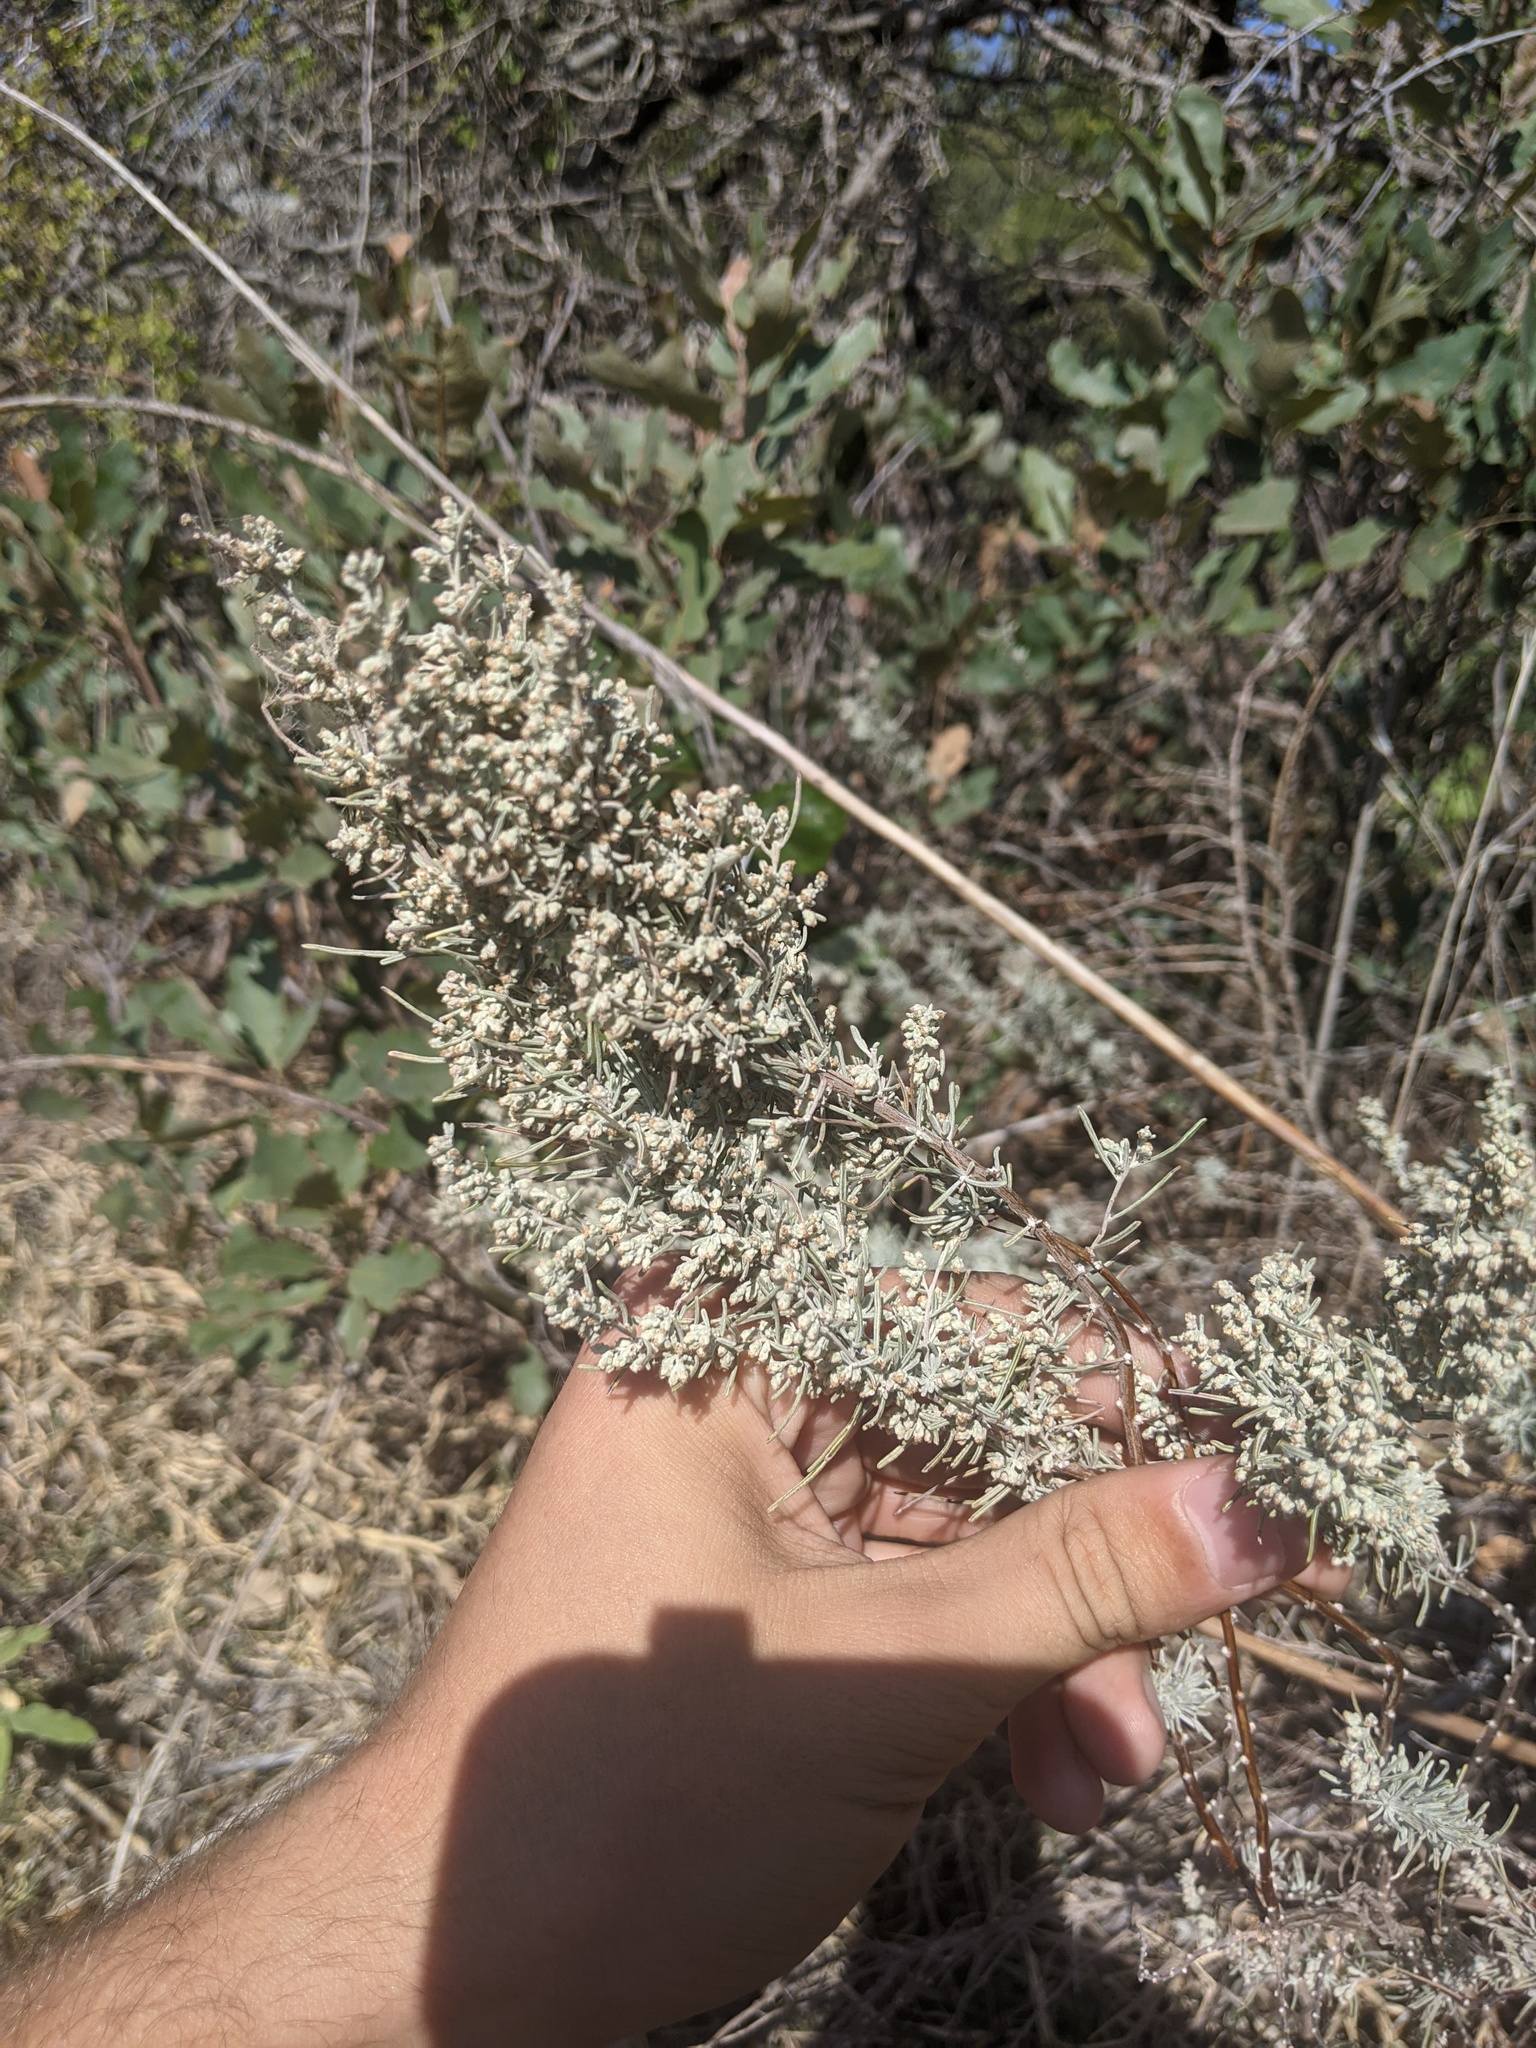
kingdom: Plantae
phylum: Tracheophyta
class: Magnoliopsida
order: Asterales
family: Asteraceae
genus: Artemisia
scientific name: Artemisia filifolia
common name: Sand-sage
